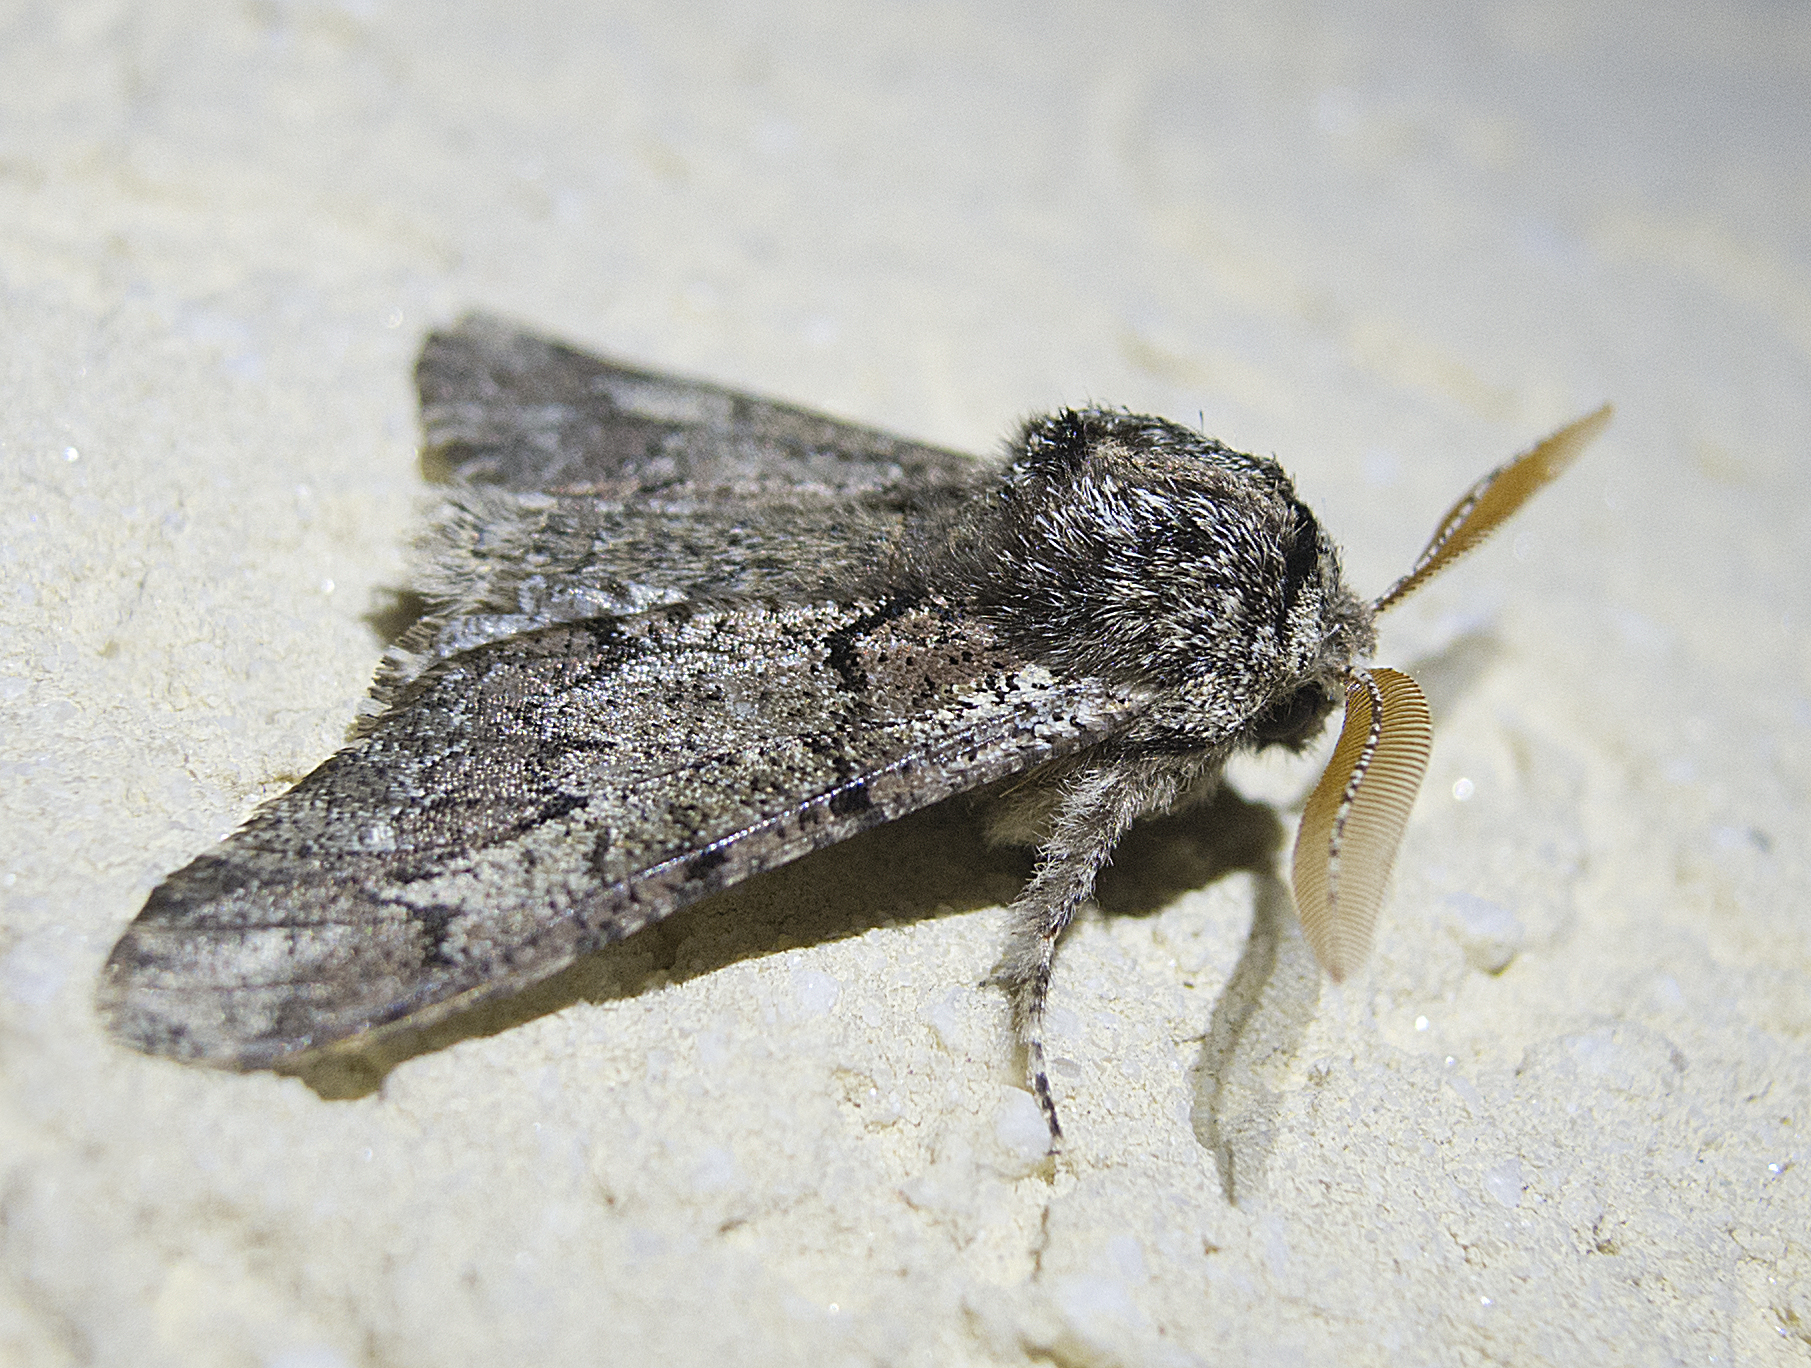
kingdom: Animalia
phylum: Arthropoda
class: Insecta
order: Lepidoptera
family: Geometridae
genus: Biston
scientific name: Biston strataria
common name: Oak beauty
